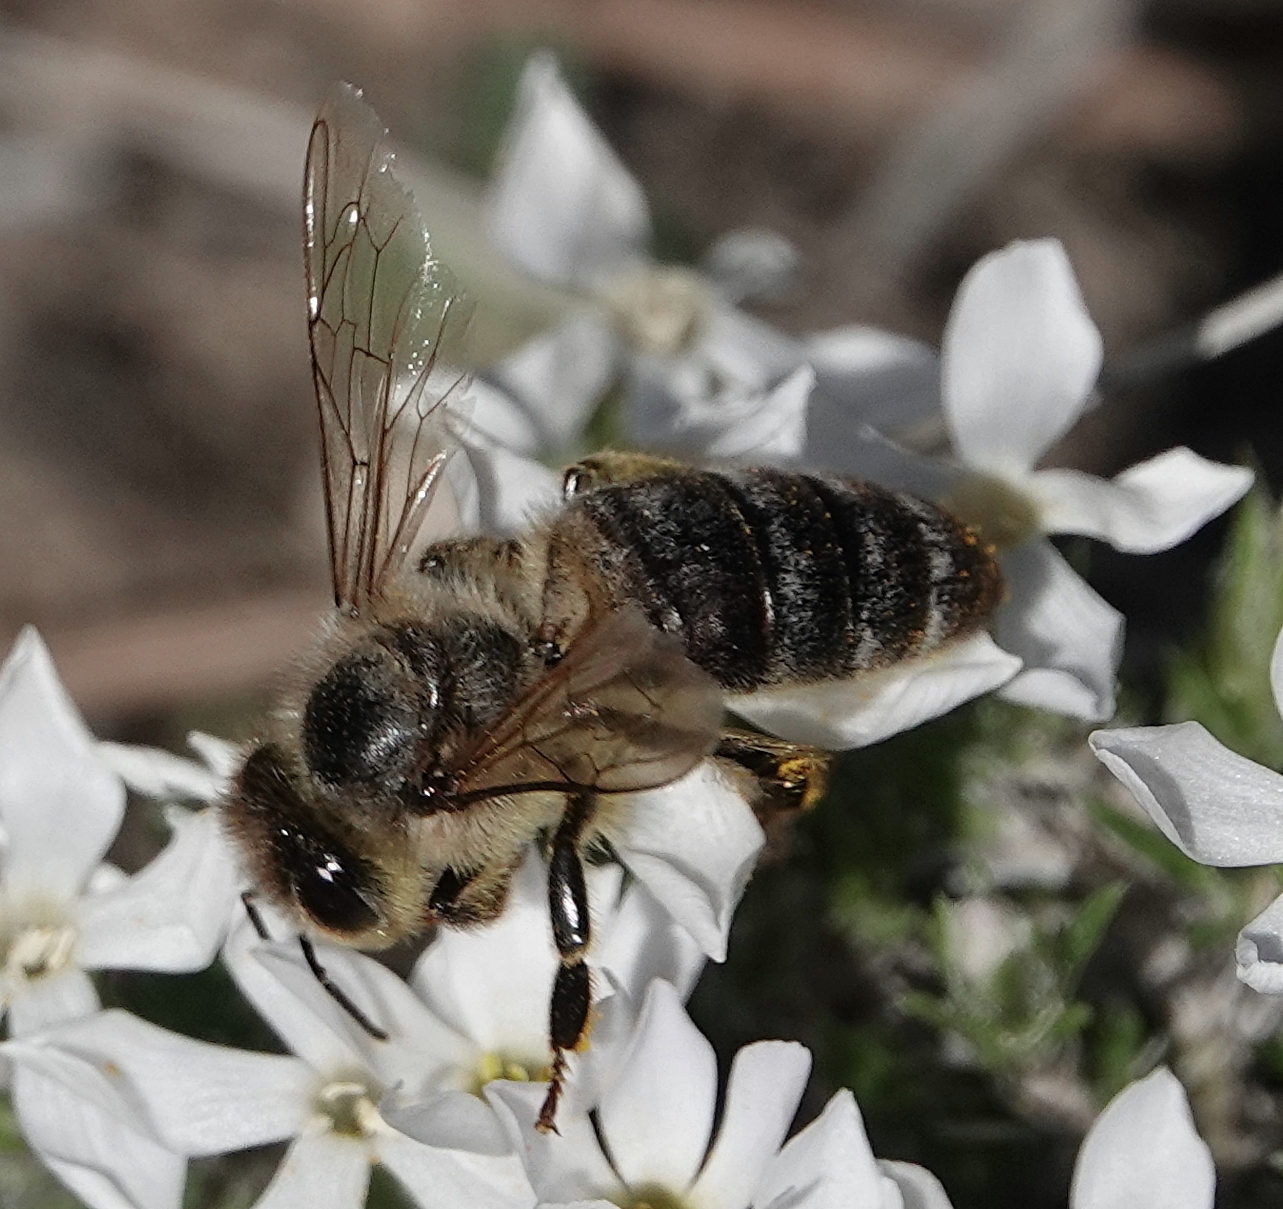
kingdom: Animalia
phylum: Arthropoda
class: Insecta
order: Hymenoptera
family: Apidae
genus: Apis
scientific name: Apis mellifera
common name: Honey bee
